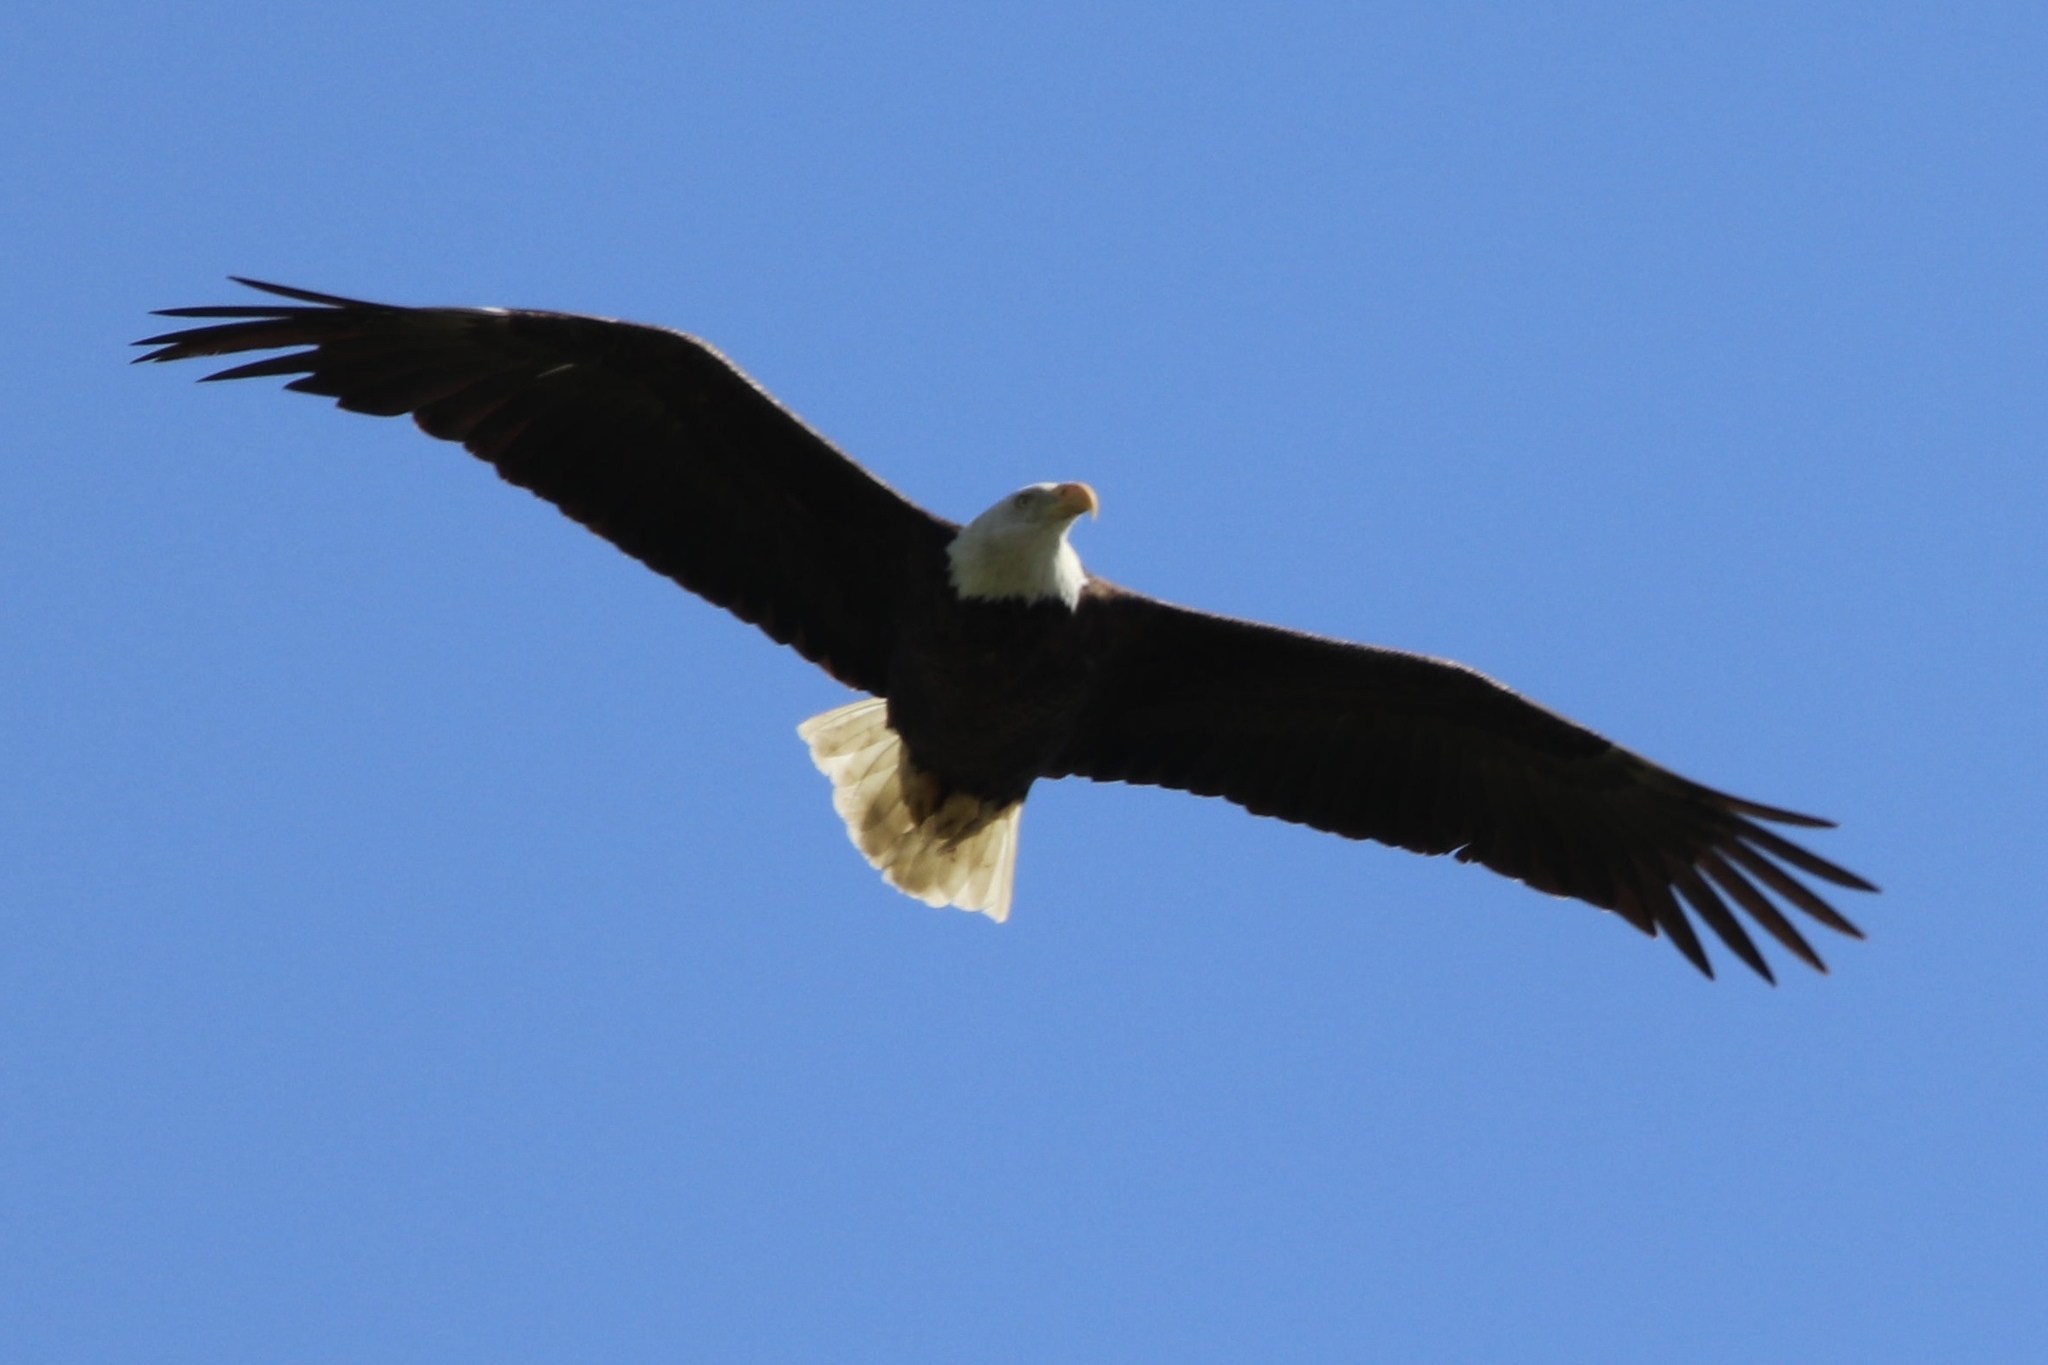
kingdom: Animalia
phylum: Chordata
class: Aves
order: Accipitriformes
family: Accipitridae
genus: Haliaeetus
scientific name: Haliaeetus leucocephalus
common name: Bald eagle
